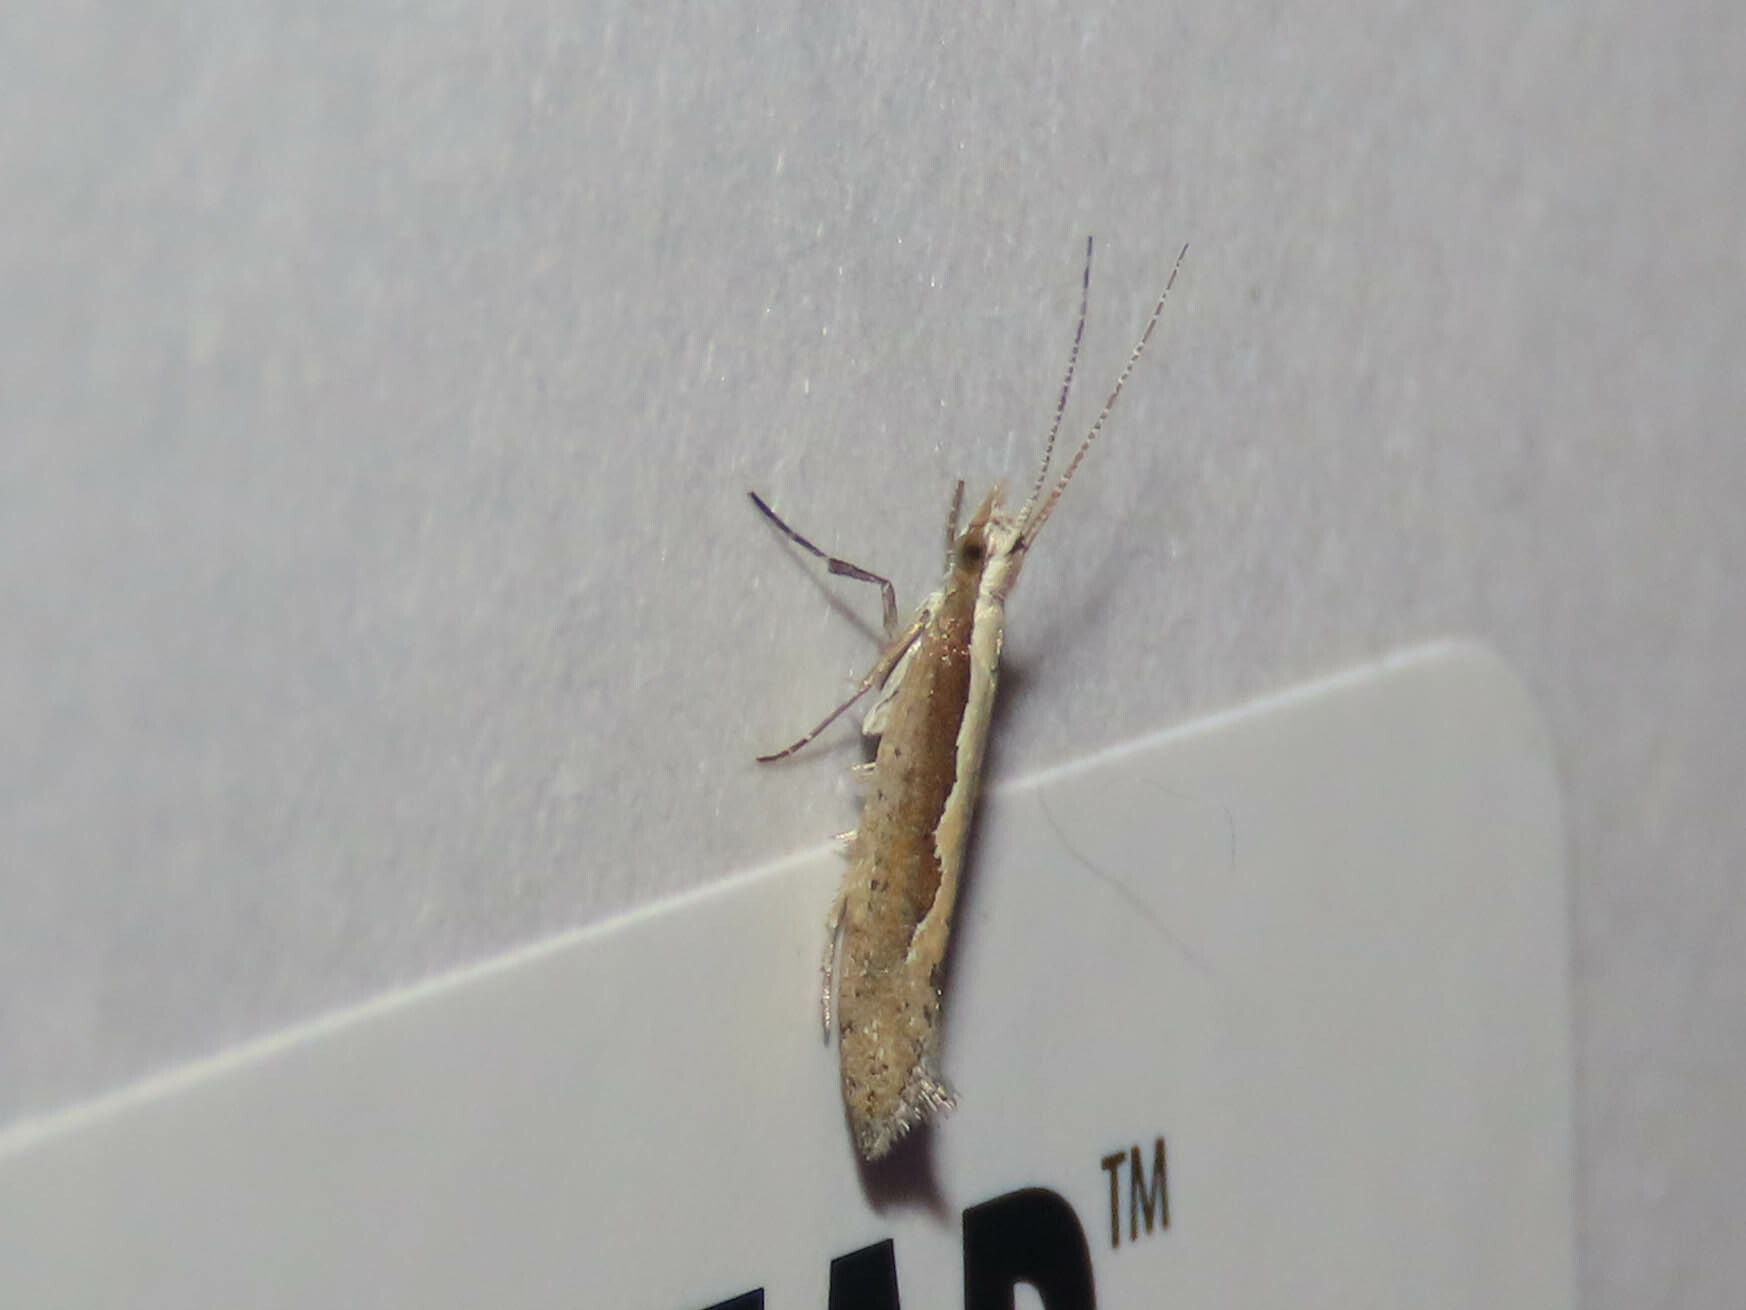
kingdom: Animalia
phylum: Arthropoda
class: Insecta
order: Lepidoptera
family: Plutellidae
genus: Plutella
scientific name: Plutella xylostella
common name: Diamond-back moth
